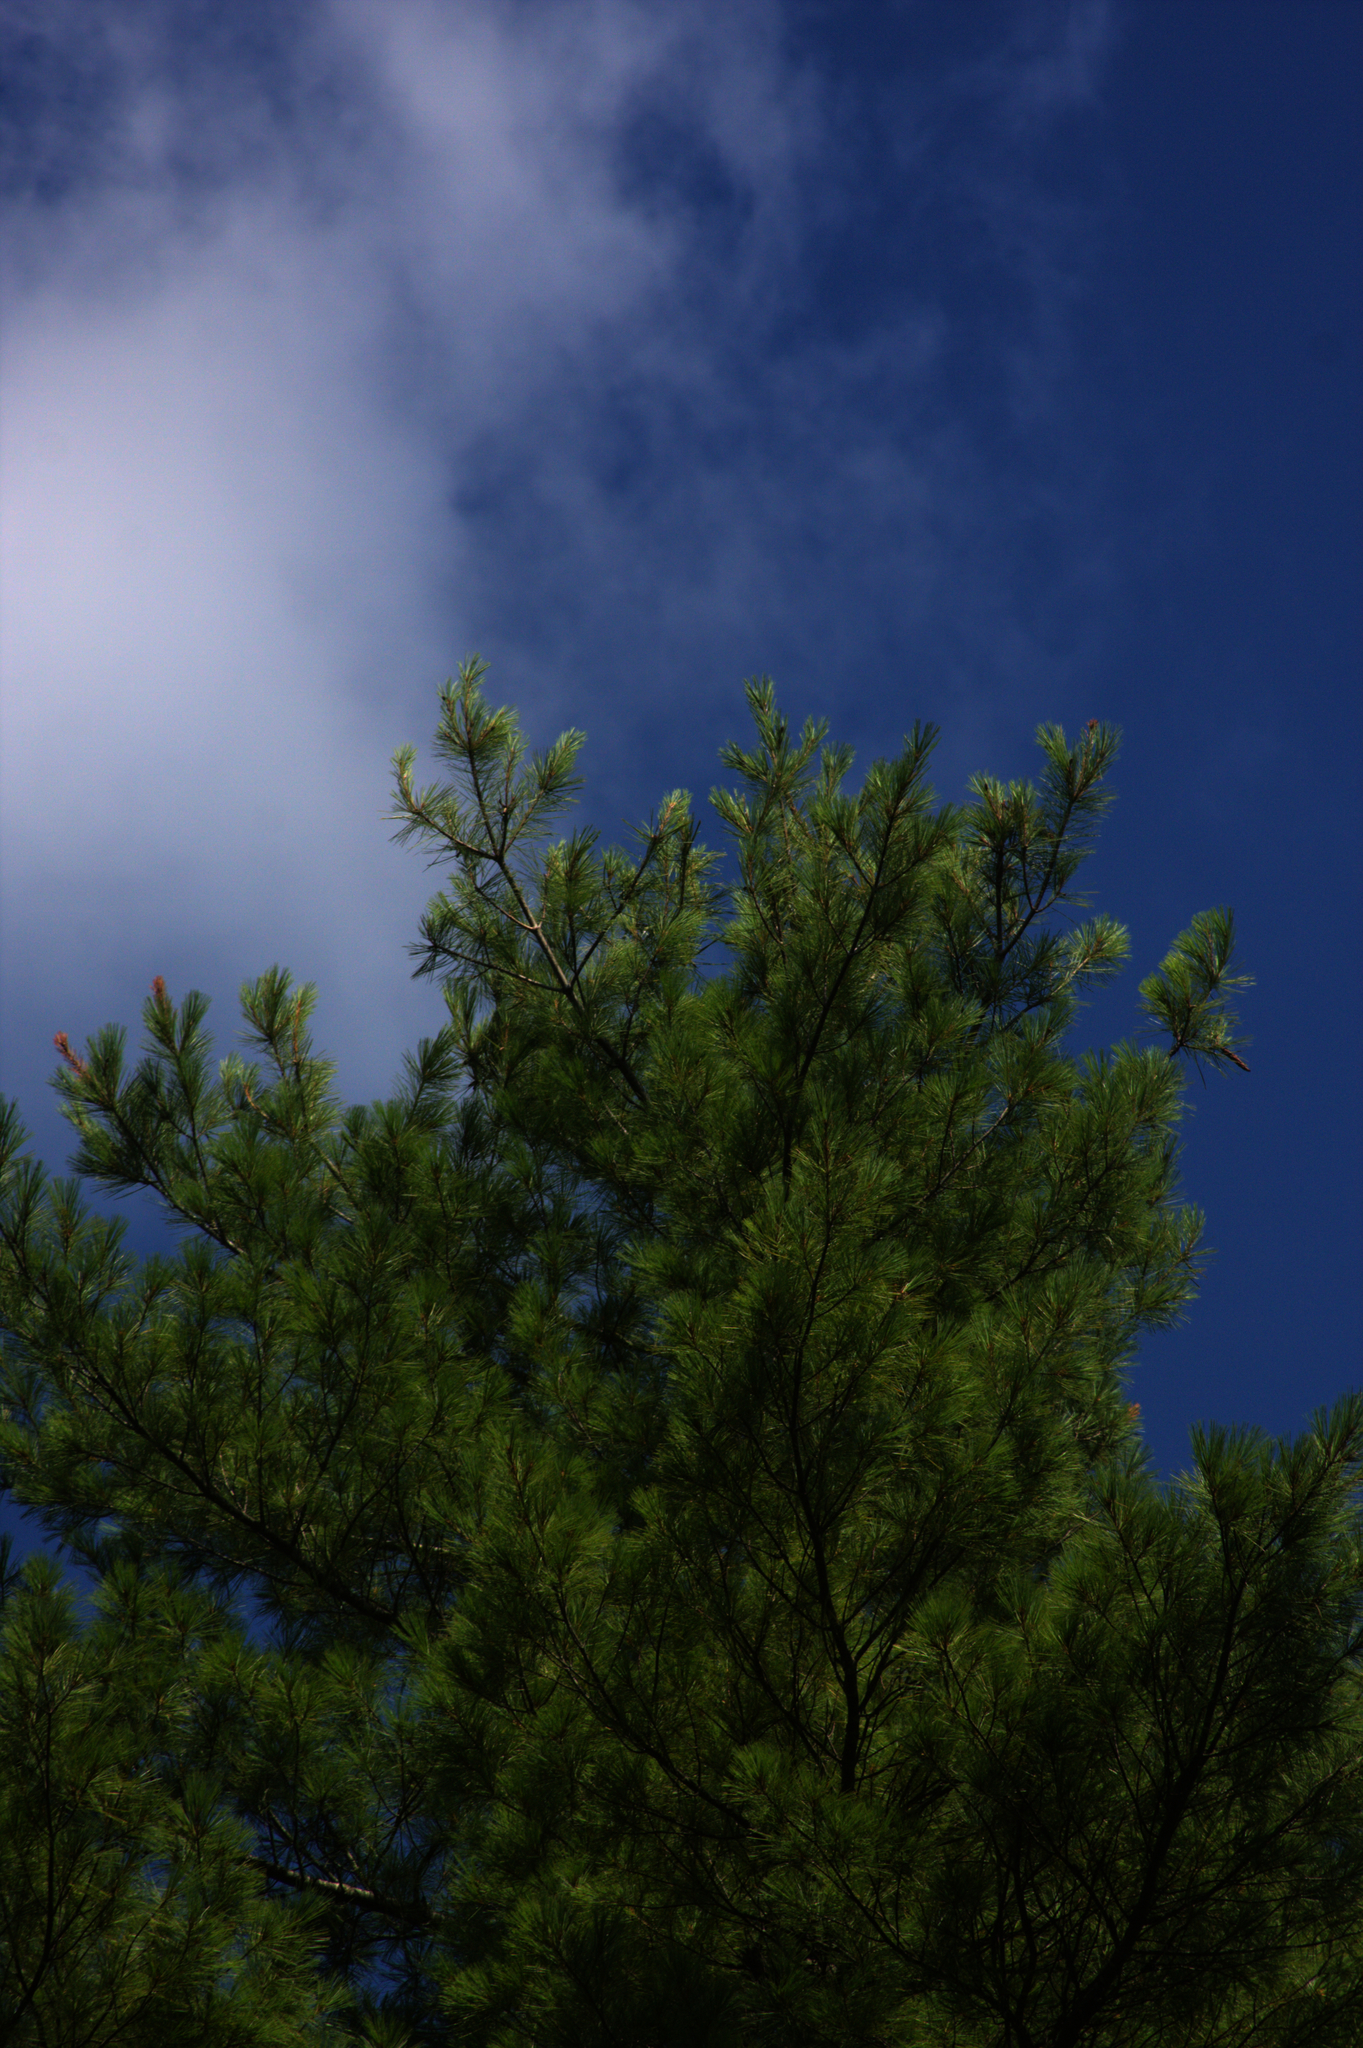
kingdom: Plantae
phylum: Tracheophyta
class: Pinopsida
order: Pinales
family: Pinaceae
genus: Pinus
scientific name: Pinus strobus
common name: Weymouth pine
